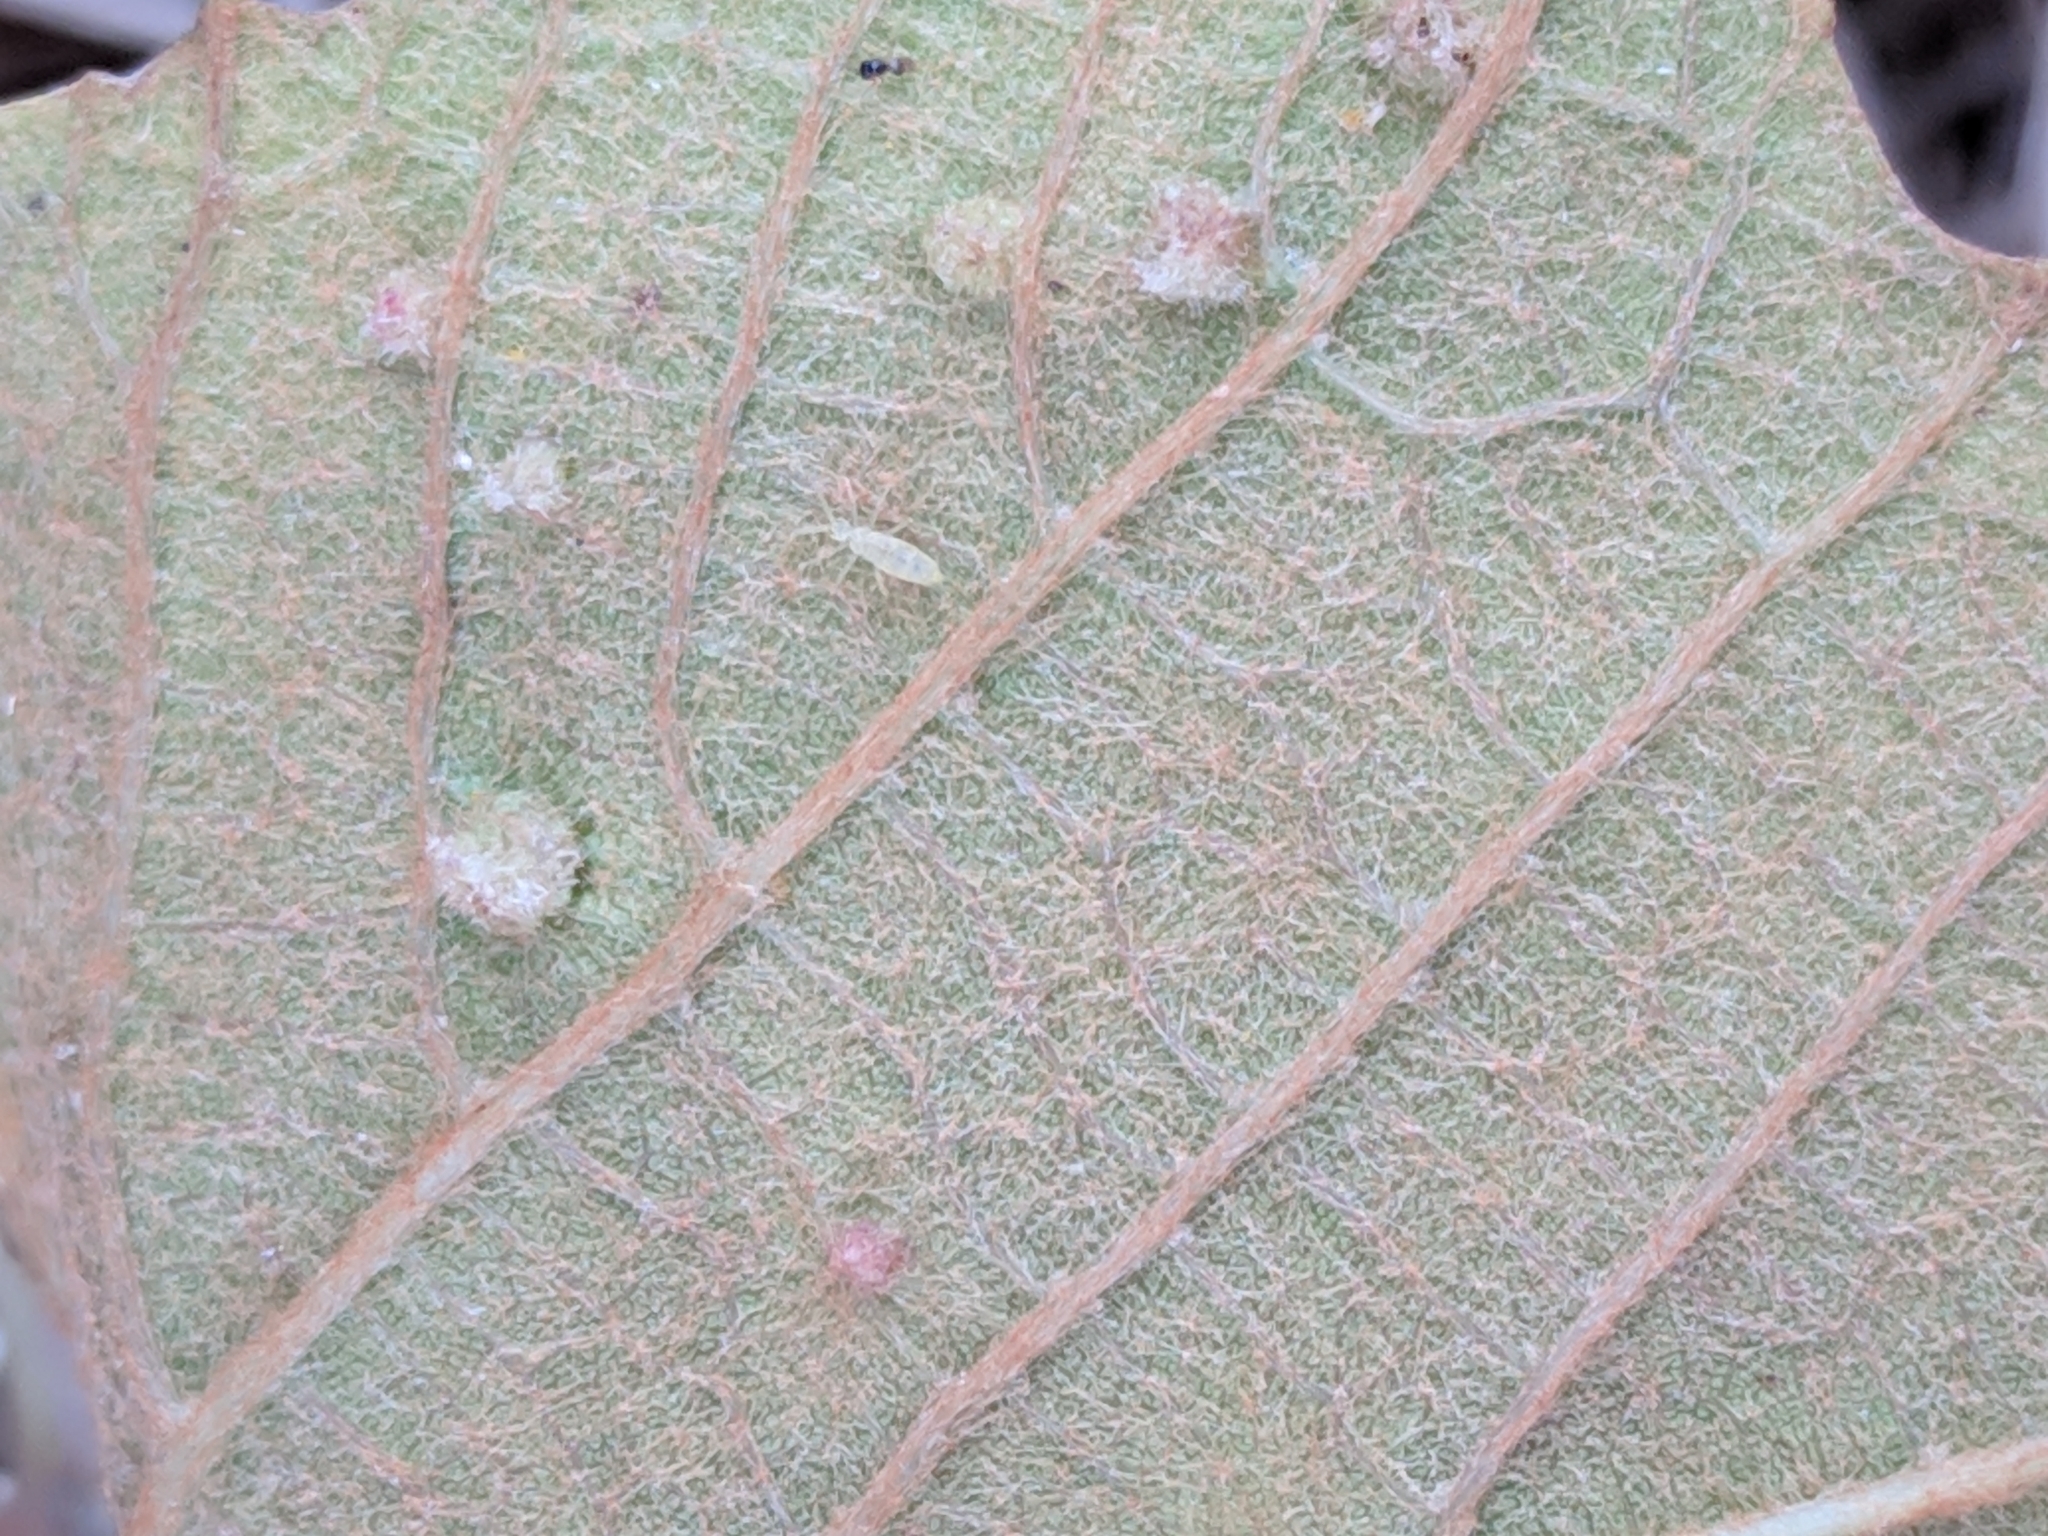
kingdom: Plantae
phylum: Tracheophyta
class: Magnoliopsida
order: Vitales
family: Vitaceae
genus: Vitis
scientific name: Vitis aestivalis
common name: Pigeon grape
